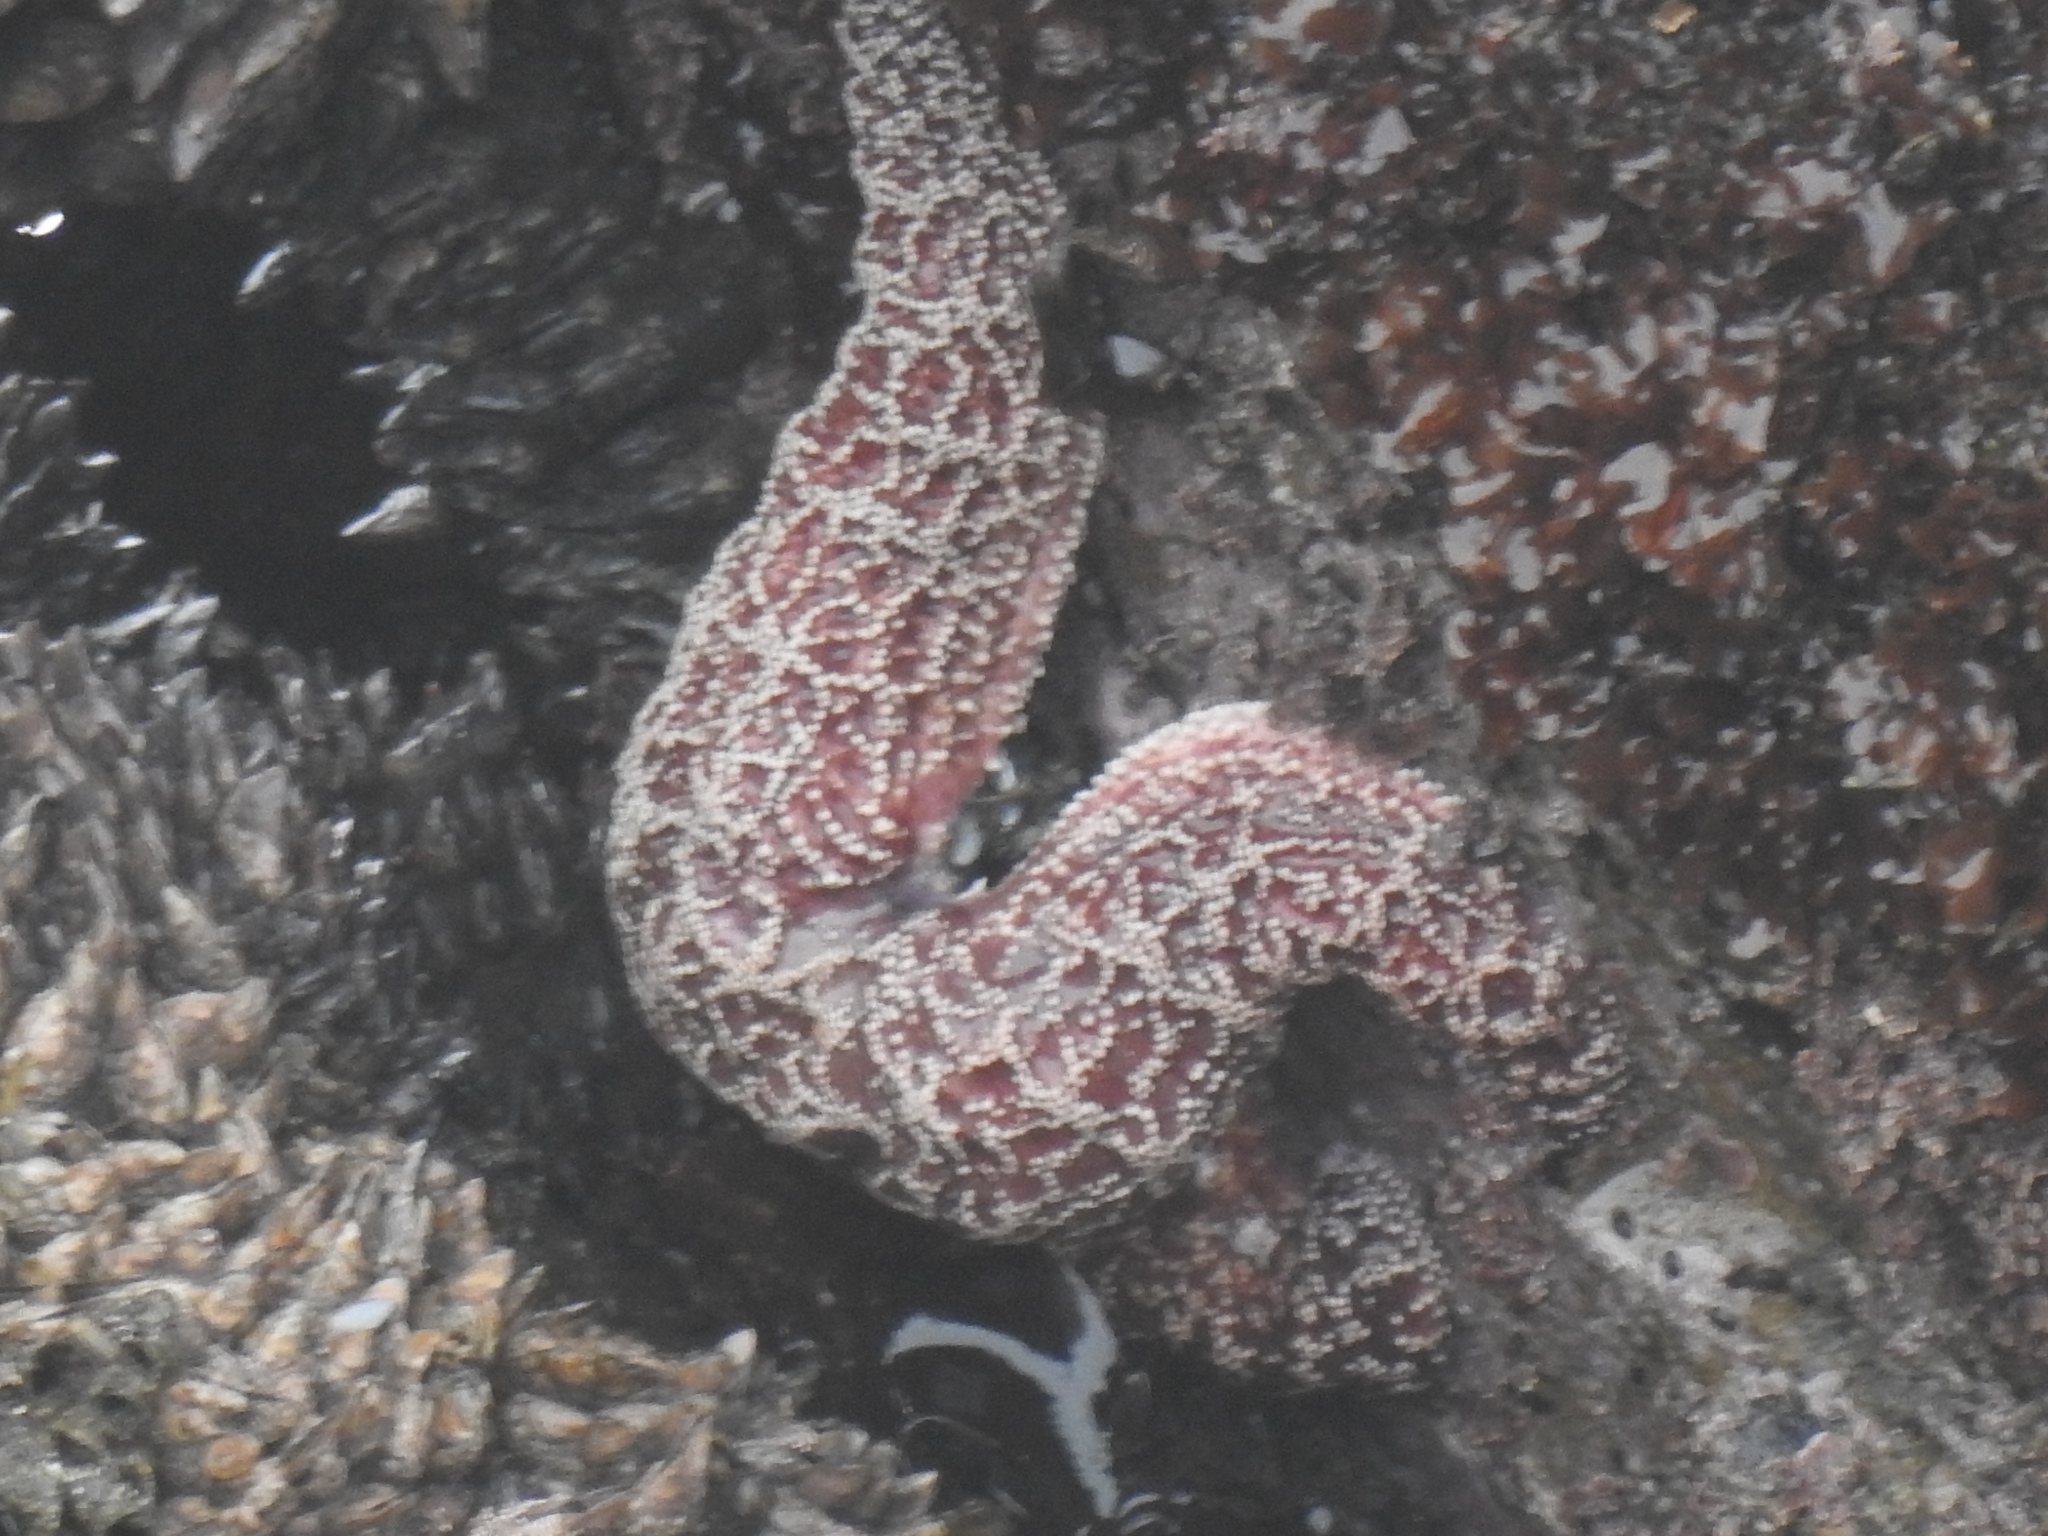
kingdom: Animalia
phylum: Echinodermata
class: Asteroidea
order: Forcipulatida
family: Asteriidae
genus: Pisaster
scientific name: Pisaster ochraceus
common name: Ochre stars
